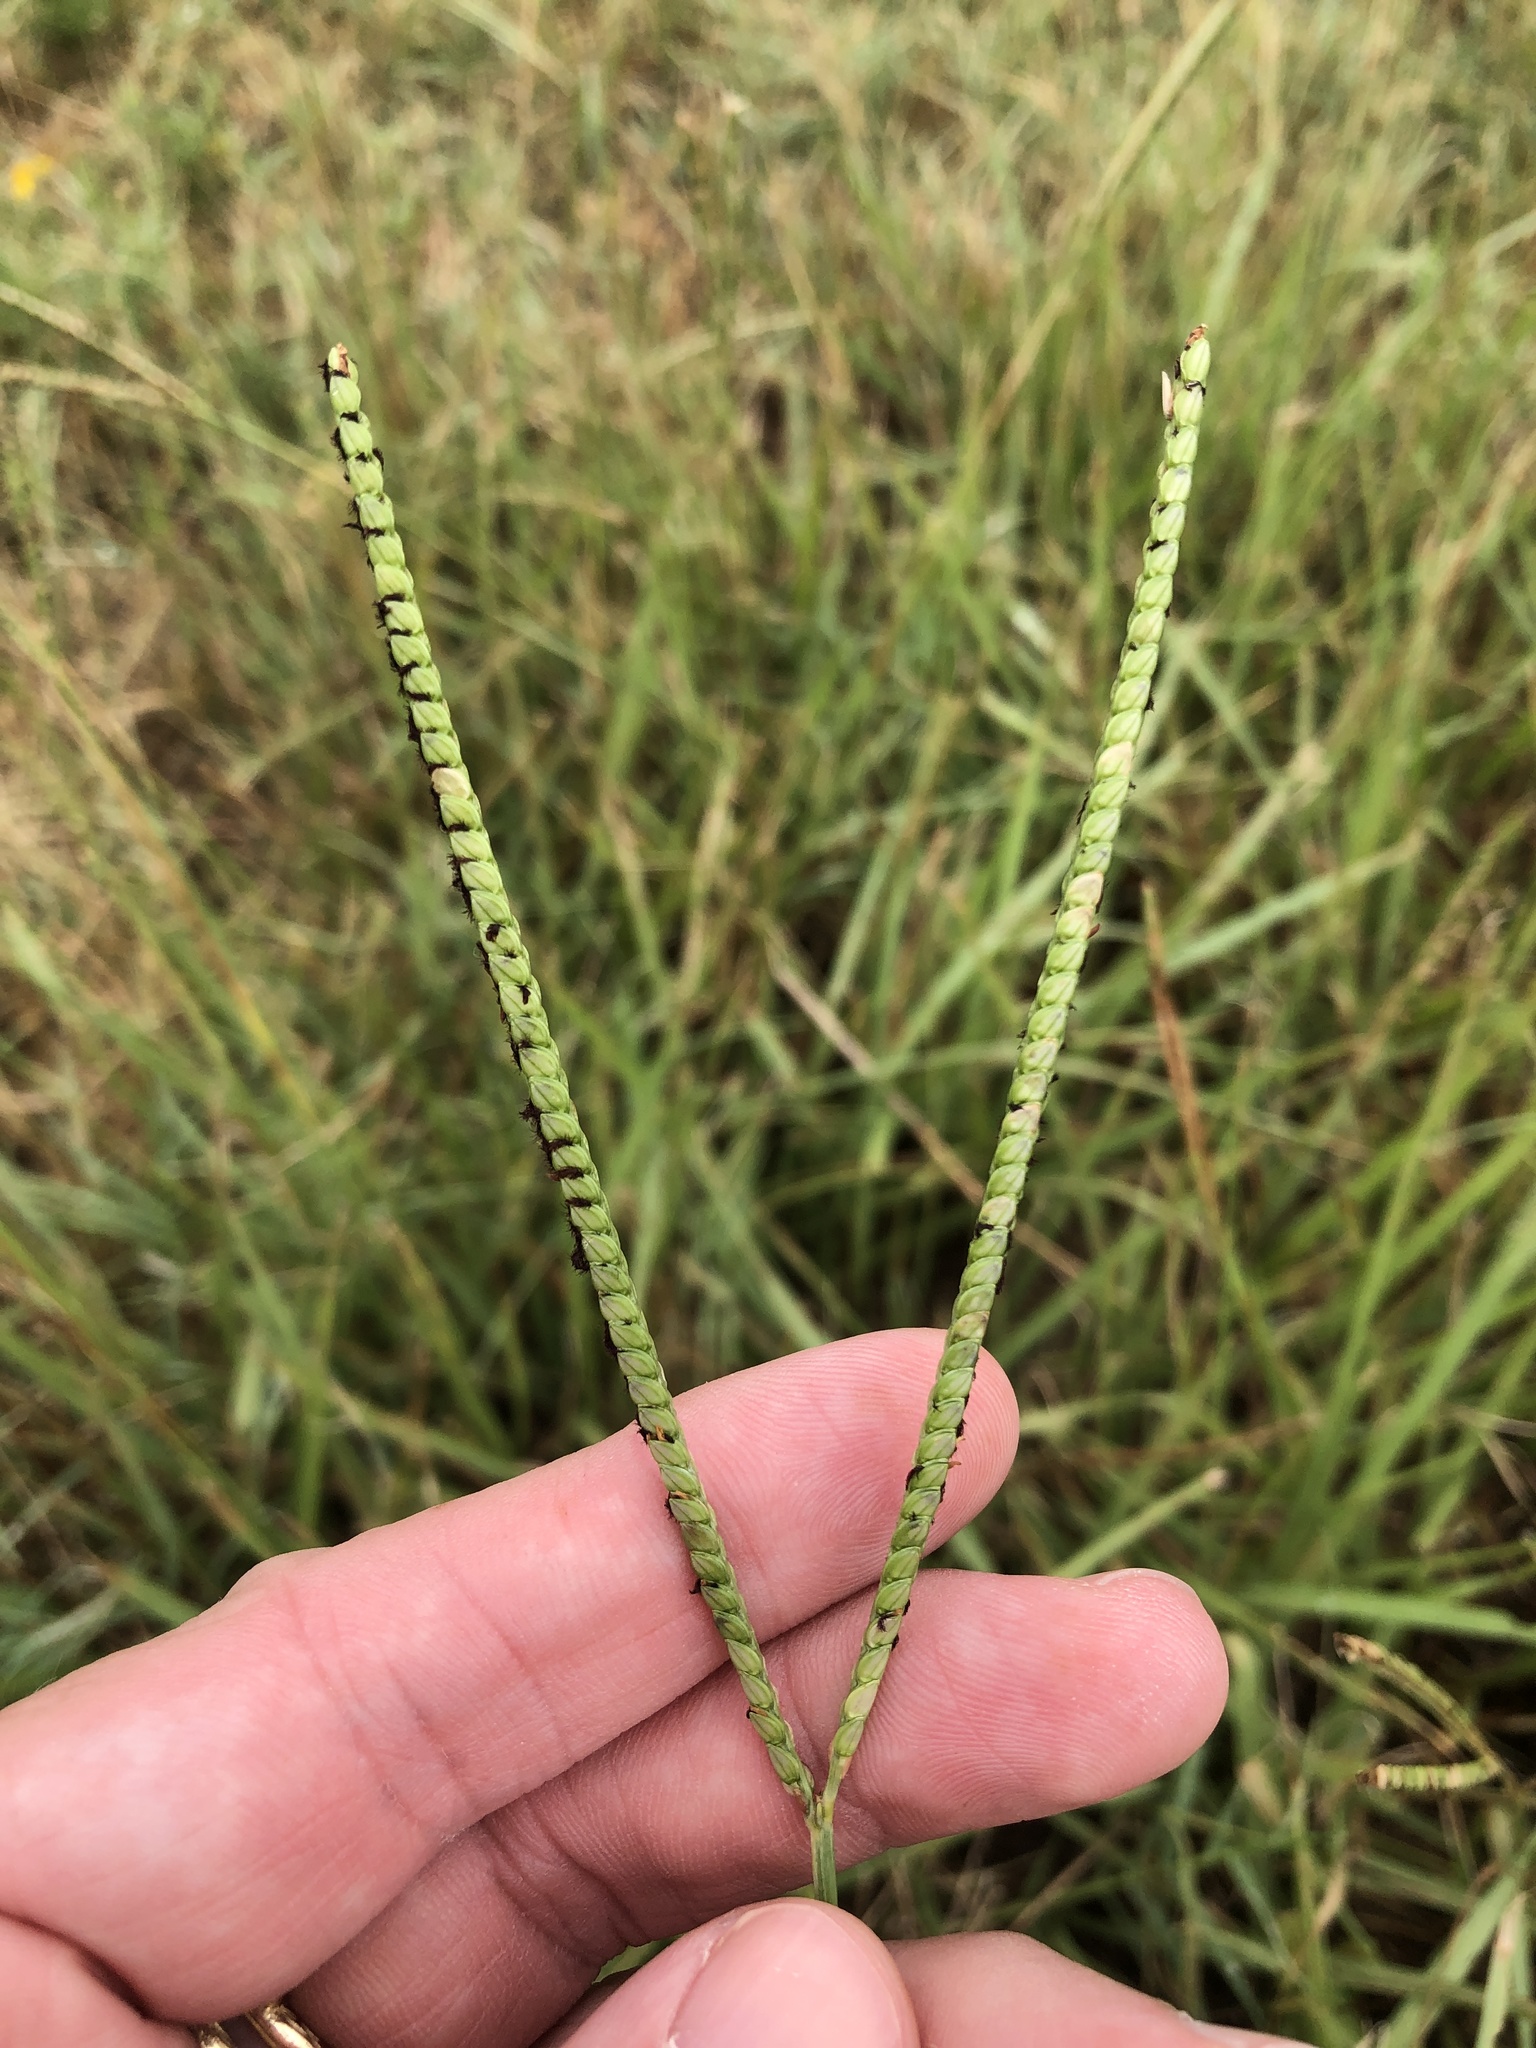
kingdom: Plantae
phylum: Tracheophyta
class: Liliopsida
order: Poales
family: Poaceae
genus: Paspalum
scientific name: Paspalum notatum
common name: Bahiagrass
